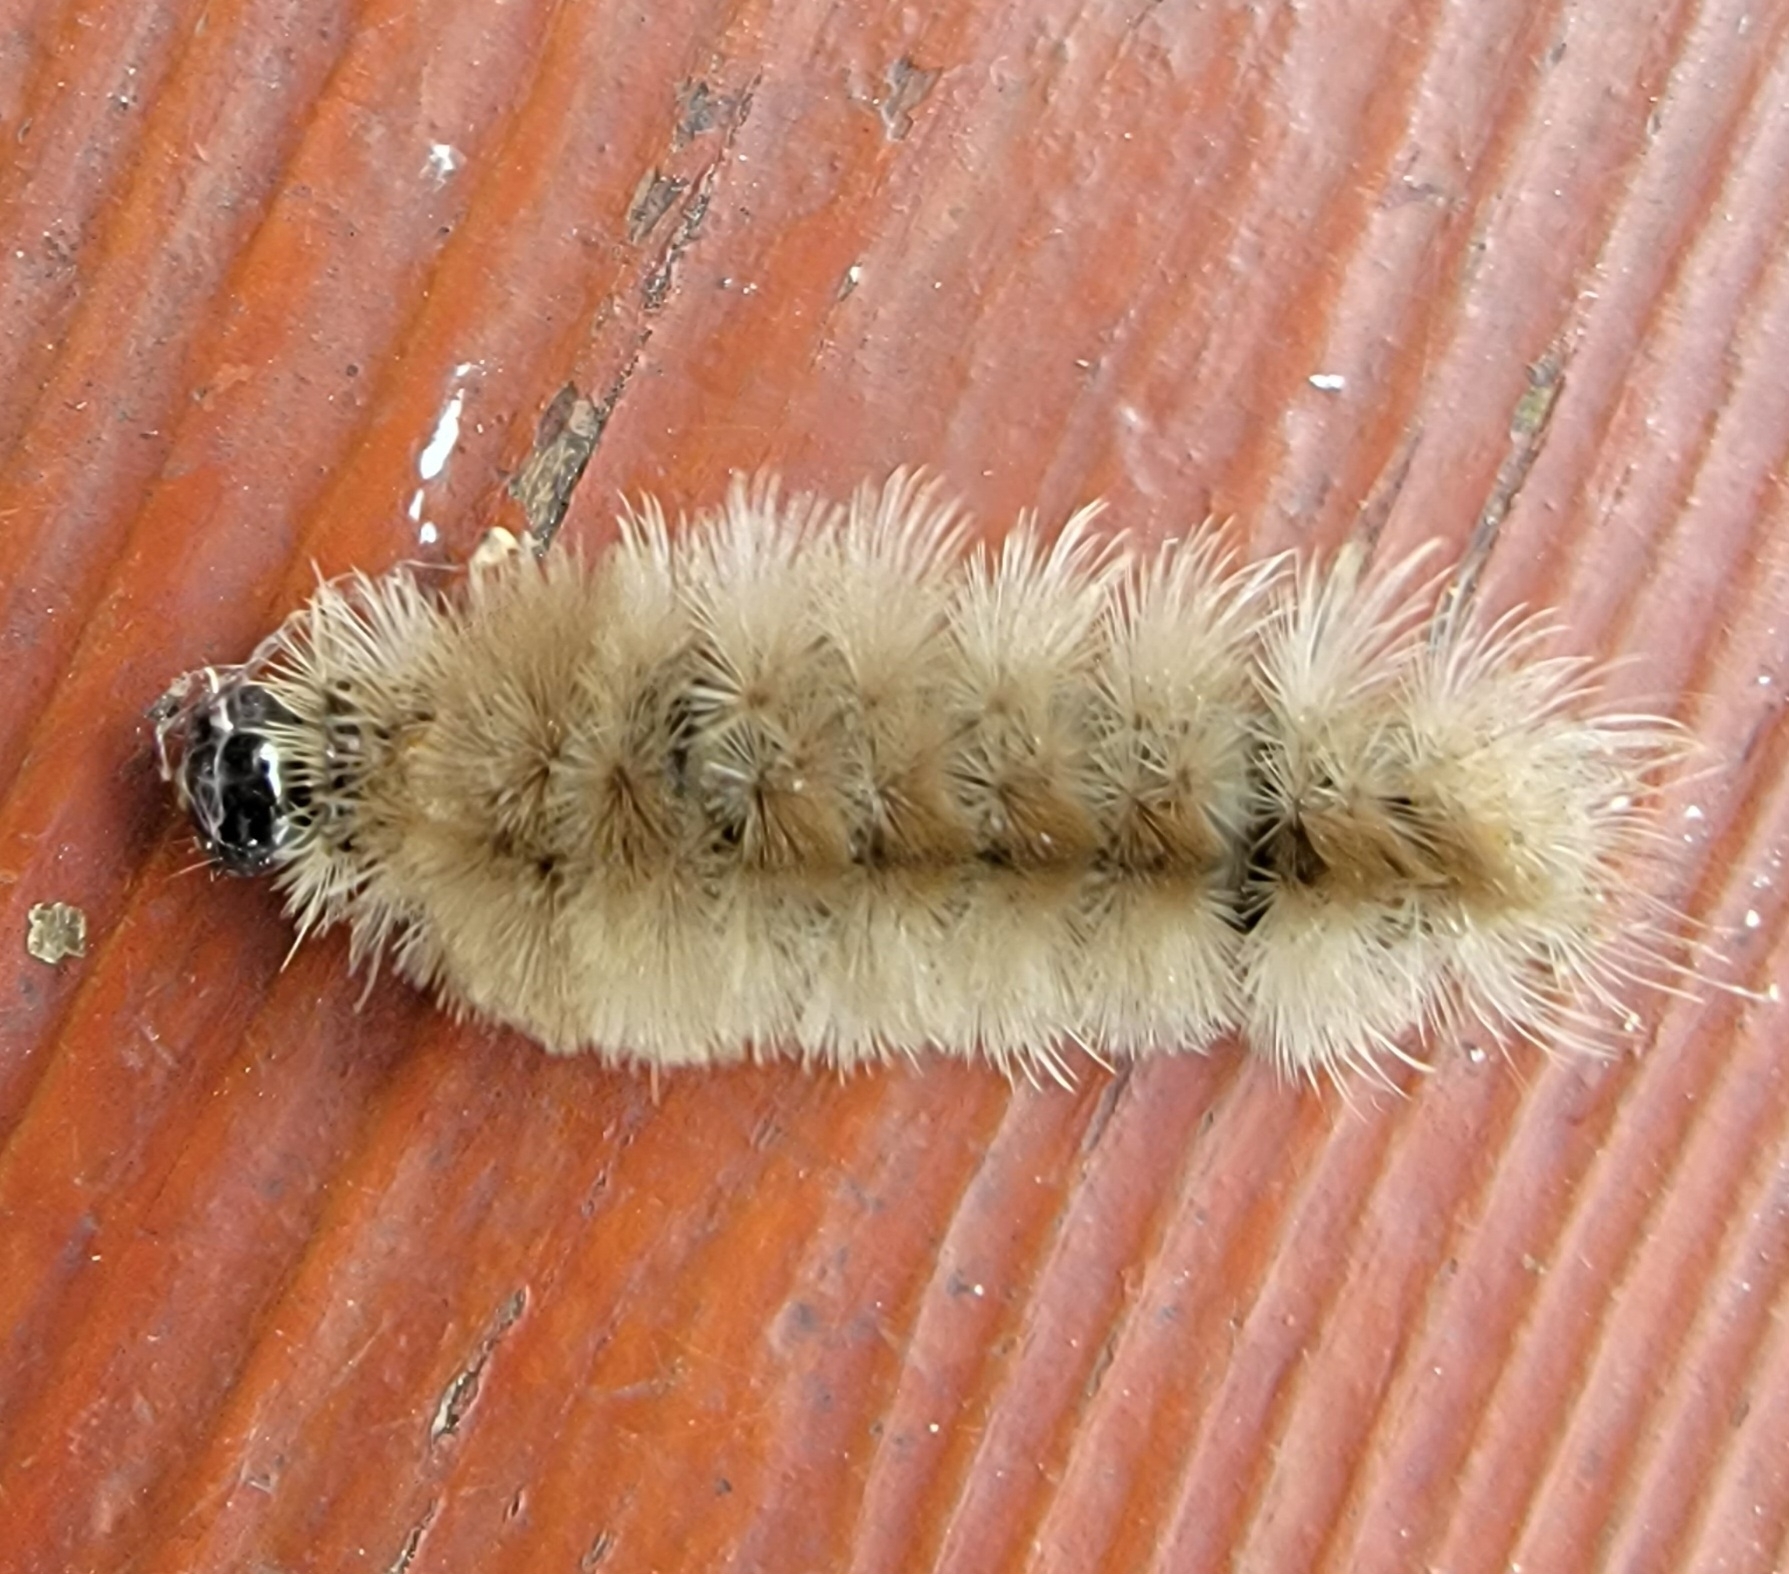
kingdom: Animalia
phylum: Arthropoda
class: Insecta
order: Lepidoptera
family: Erebidae
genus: Halysidota
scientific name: Halysidota tessellaris
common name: Banded tussock moth
